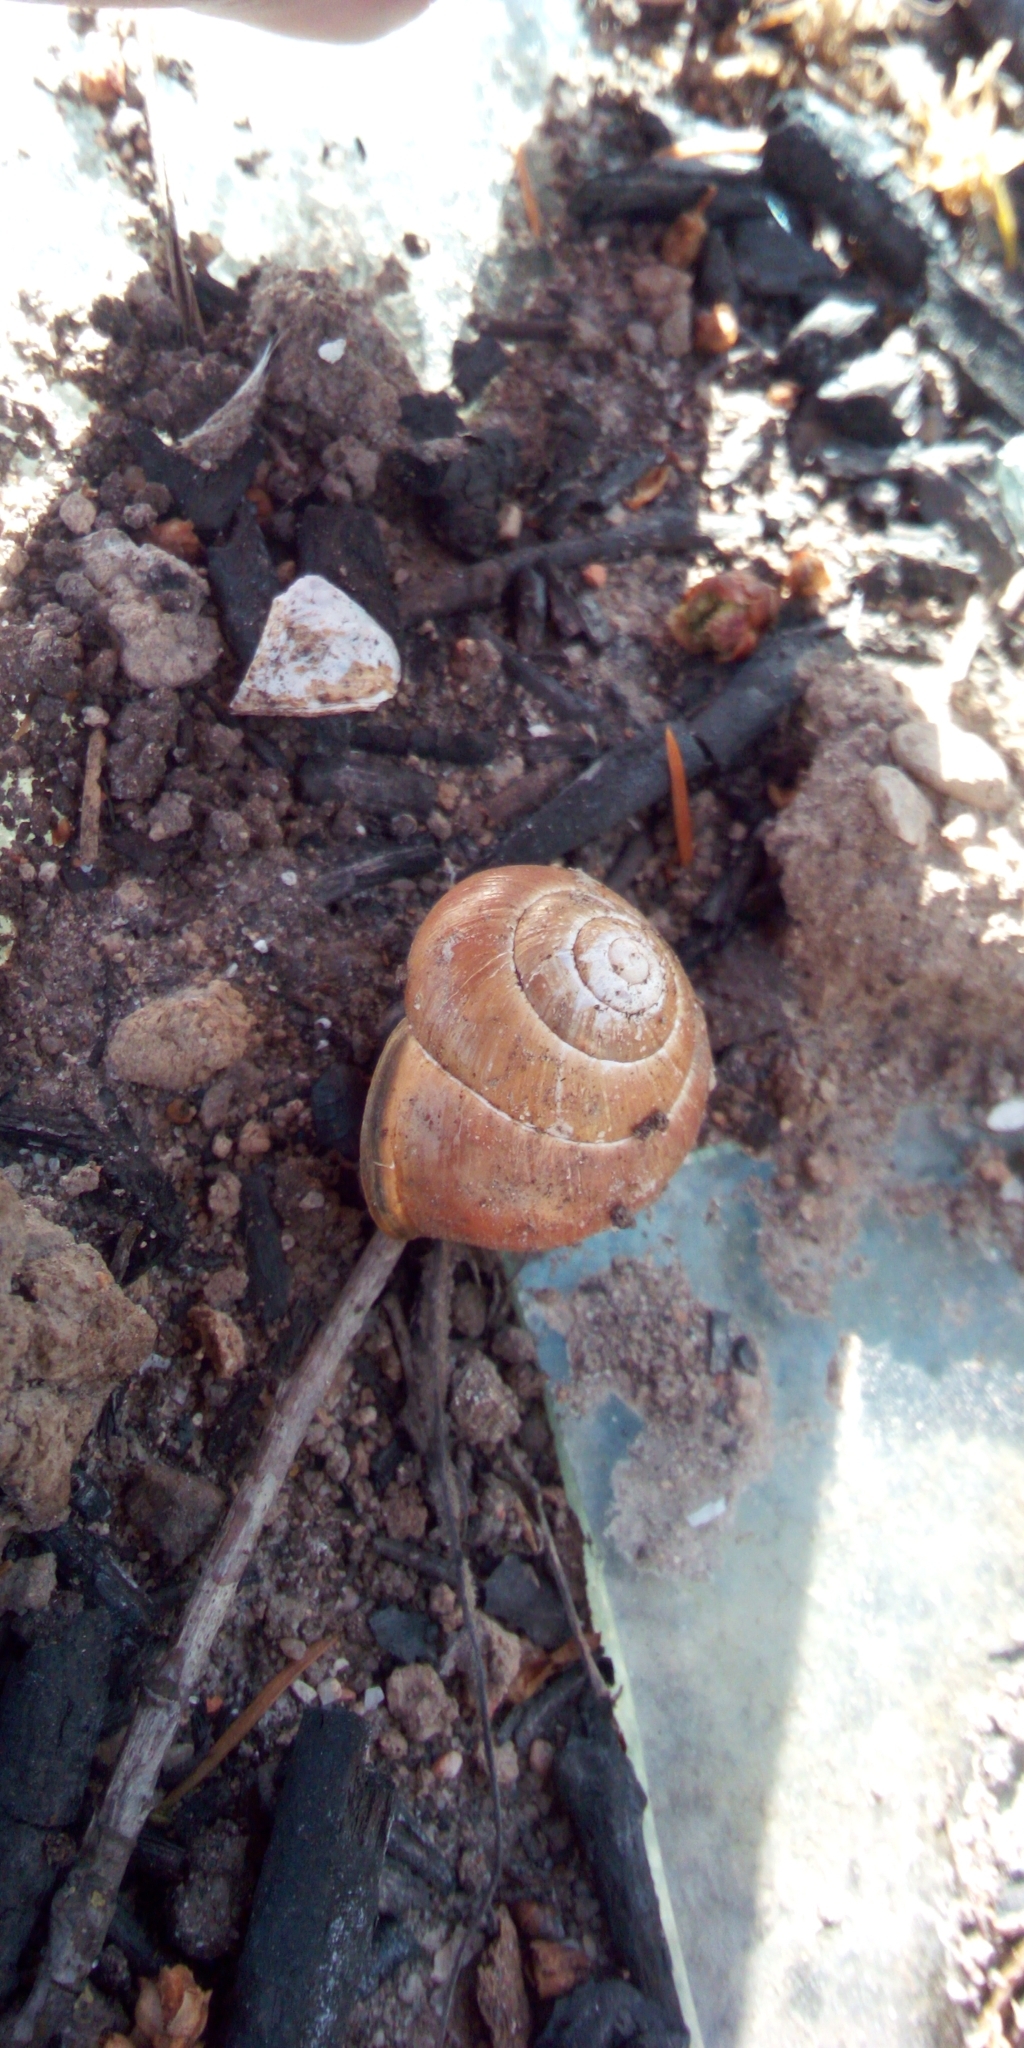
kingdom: Animalia
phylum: Mollusca
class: Gastropoda
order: Stylommatophora
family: Helicidae
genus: Cepaea
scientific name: Cepaea nemoralis
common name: Grovesnail
